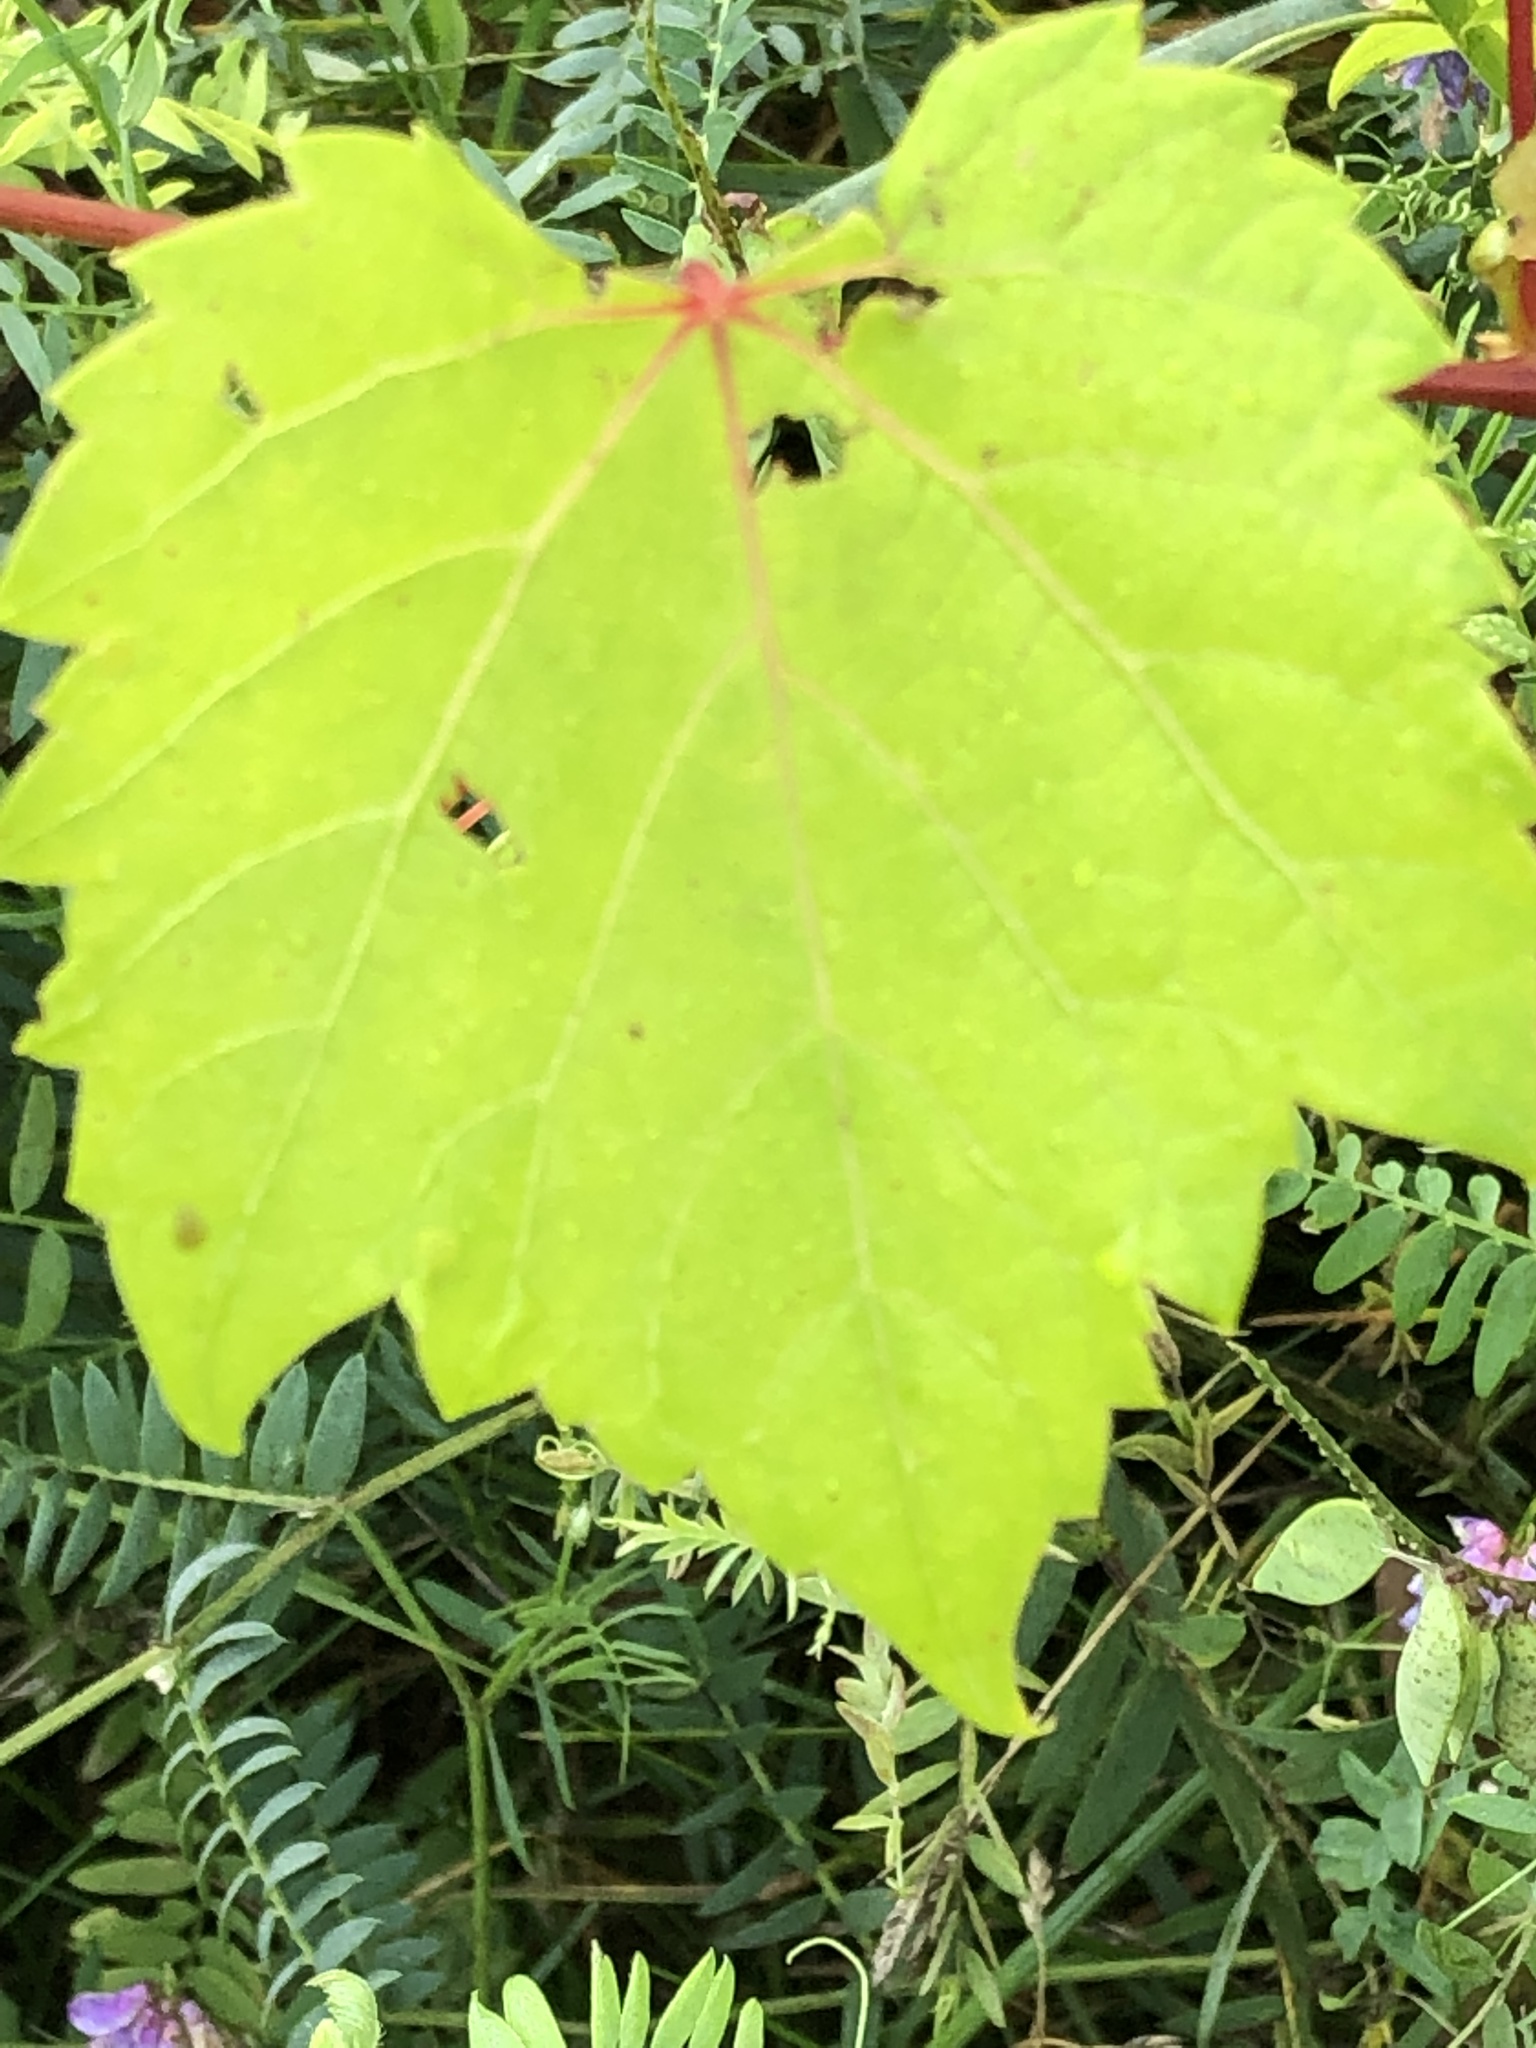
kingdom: Plantae
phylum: Tracheophyta
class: Magnoliopsida
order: Vitales
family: Vitaceae
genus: Vitis
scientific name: Vitis riparia
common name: Frost grape
